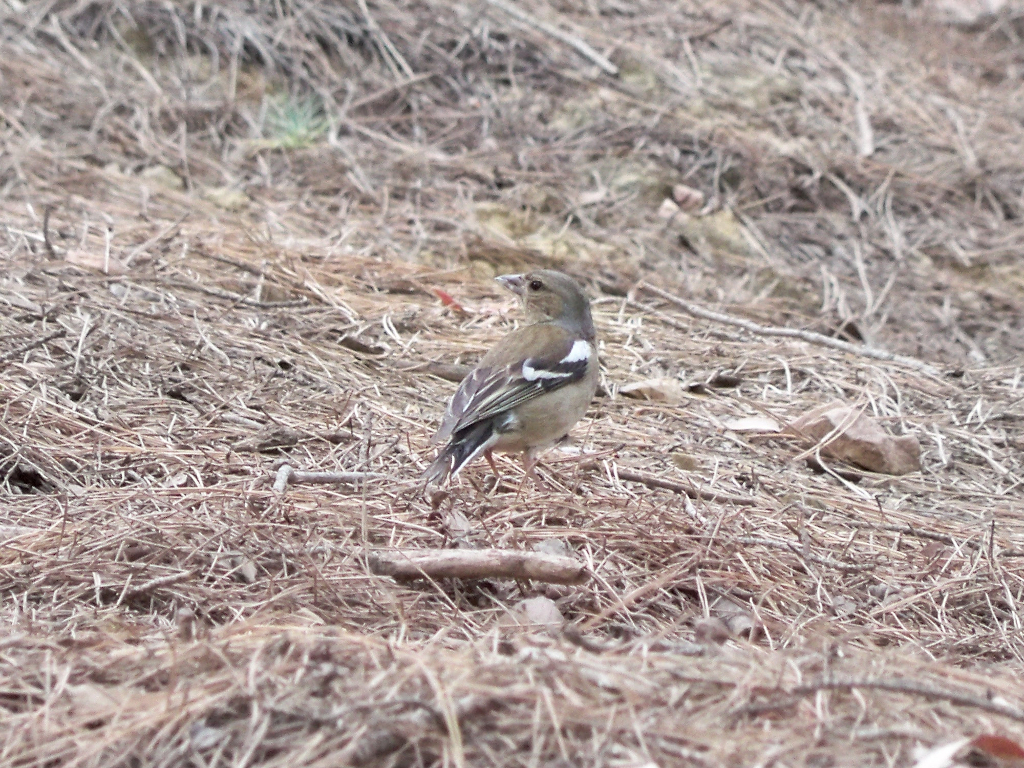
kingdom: Animalia
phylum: Chordata
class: Aves
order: Passeriformes
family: Fringillidae
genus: Fringilla
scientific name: Fringilla coelebs
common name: Common chaffinch
